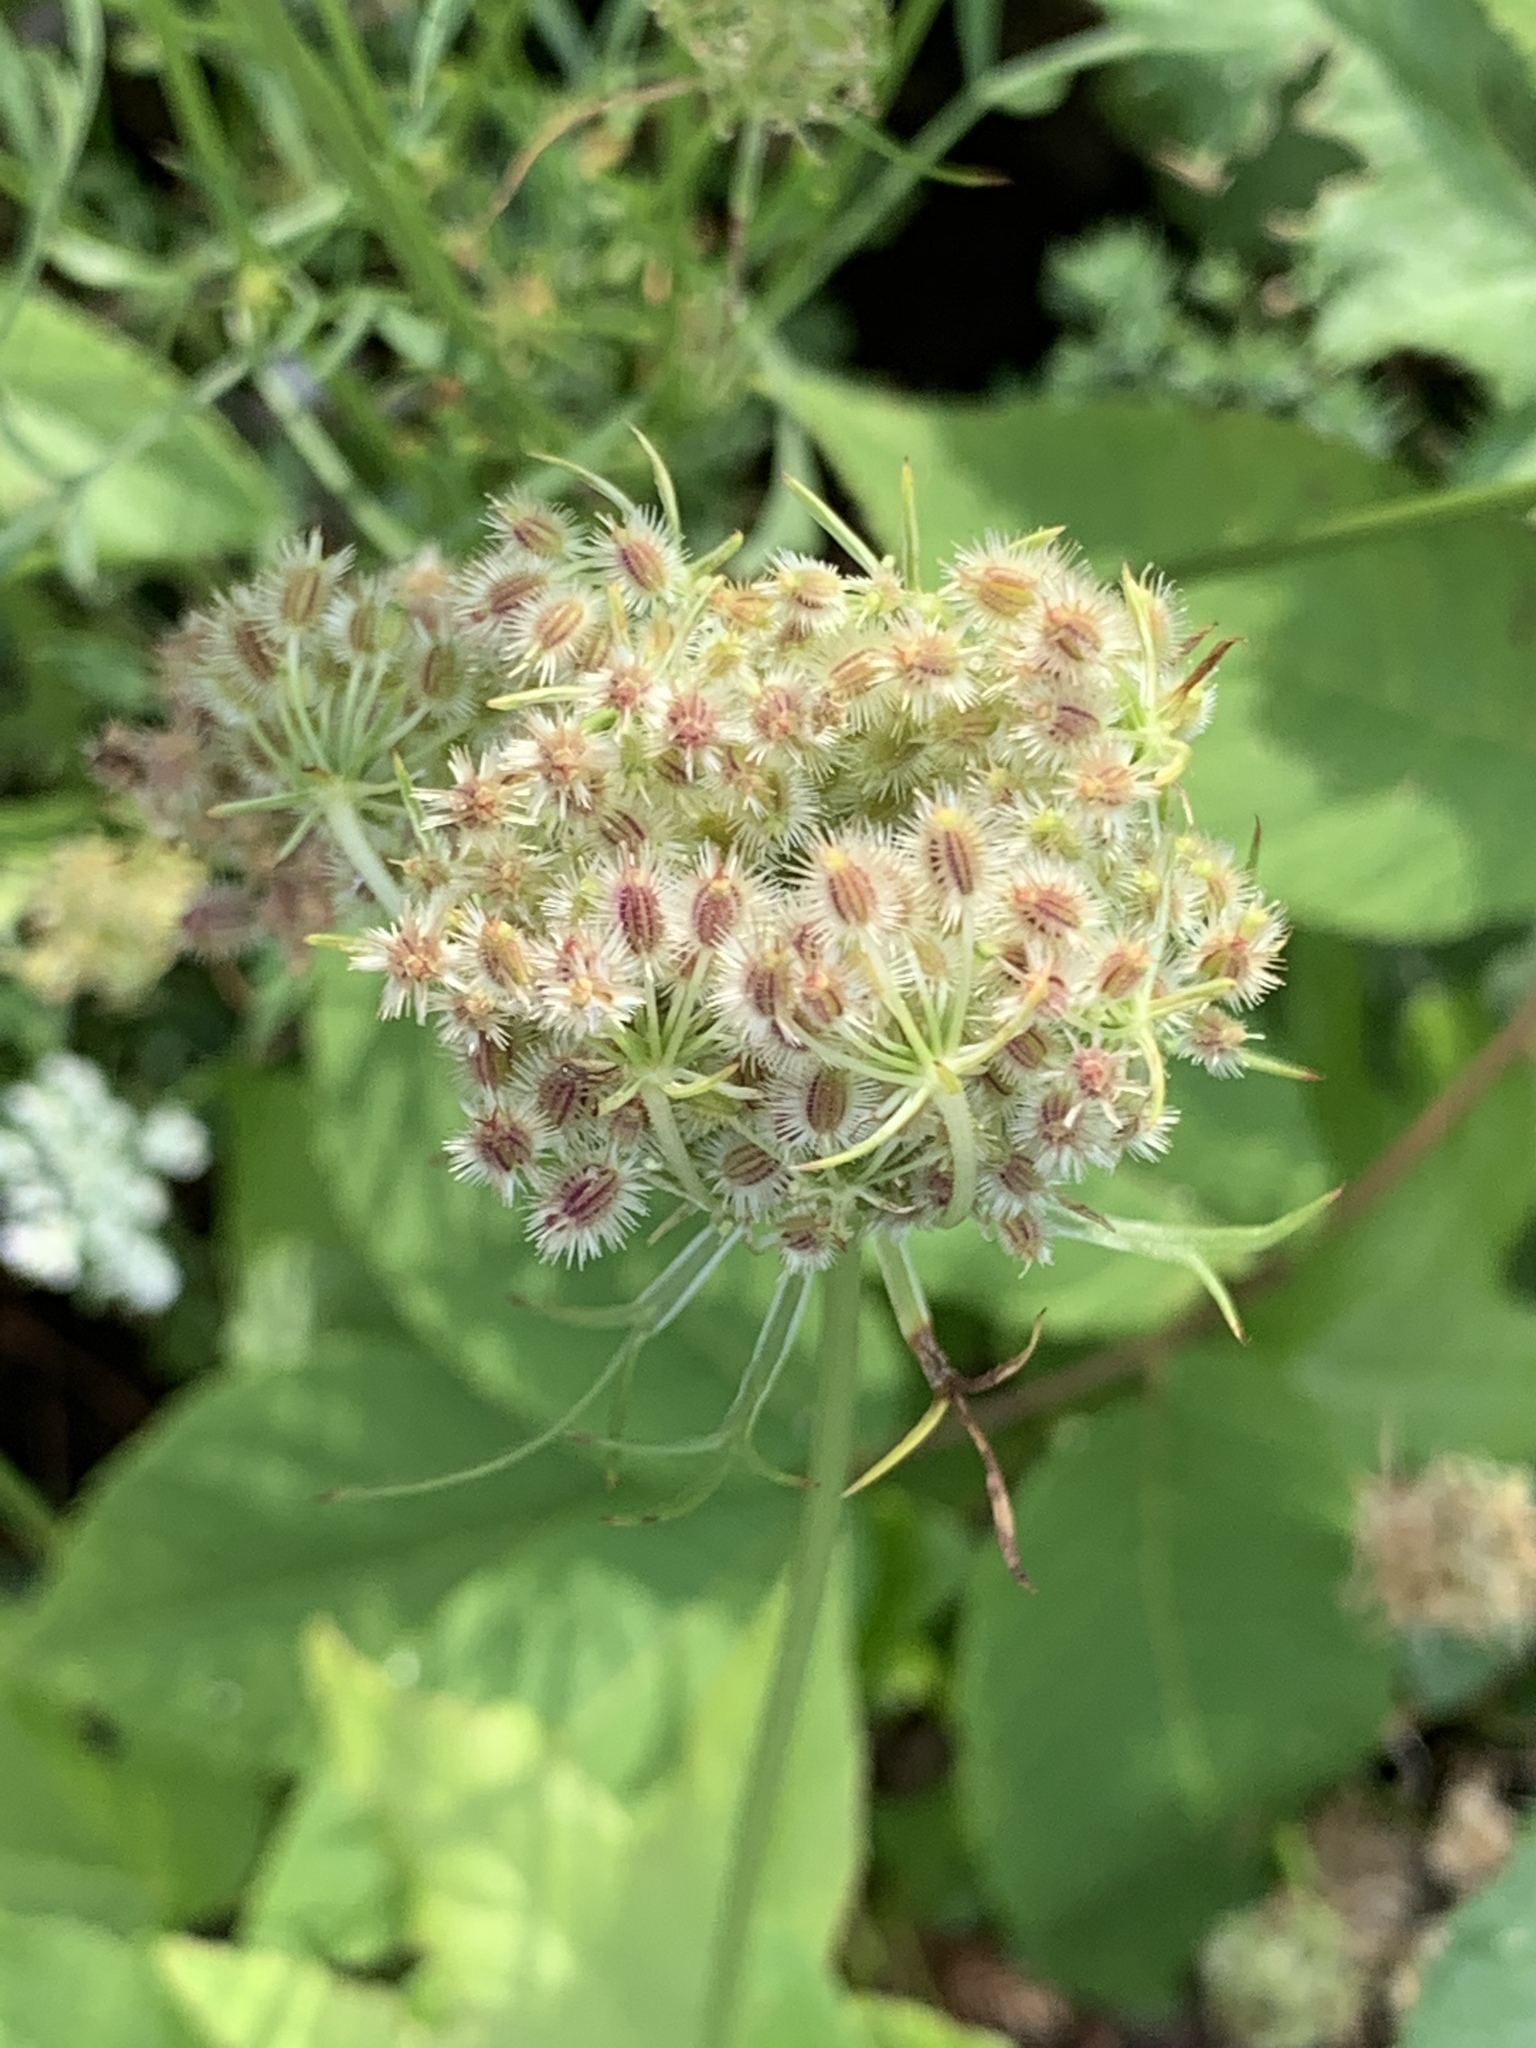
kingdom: Plantae
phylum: Tracheophyta
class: Magnoliopsida
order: Apiales
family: Apiaceae
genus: Daucus
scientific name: Daucus carota
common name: Wild carrot
